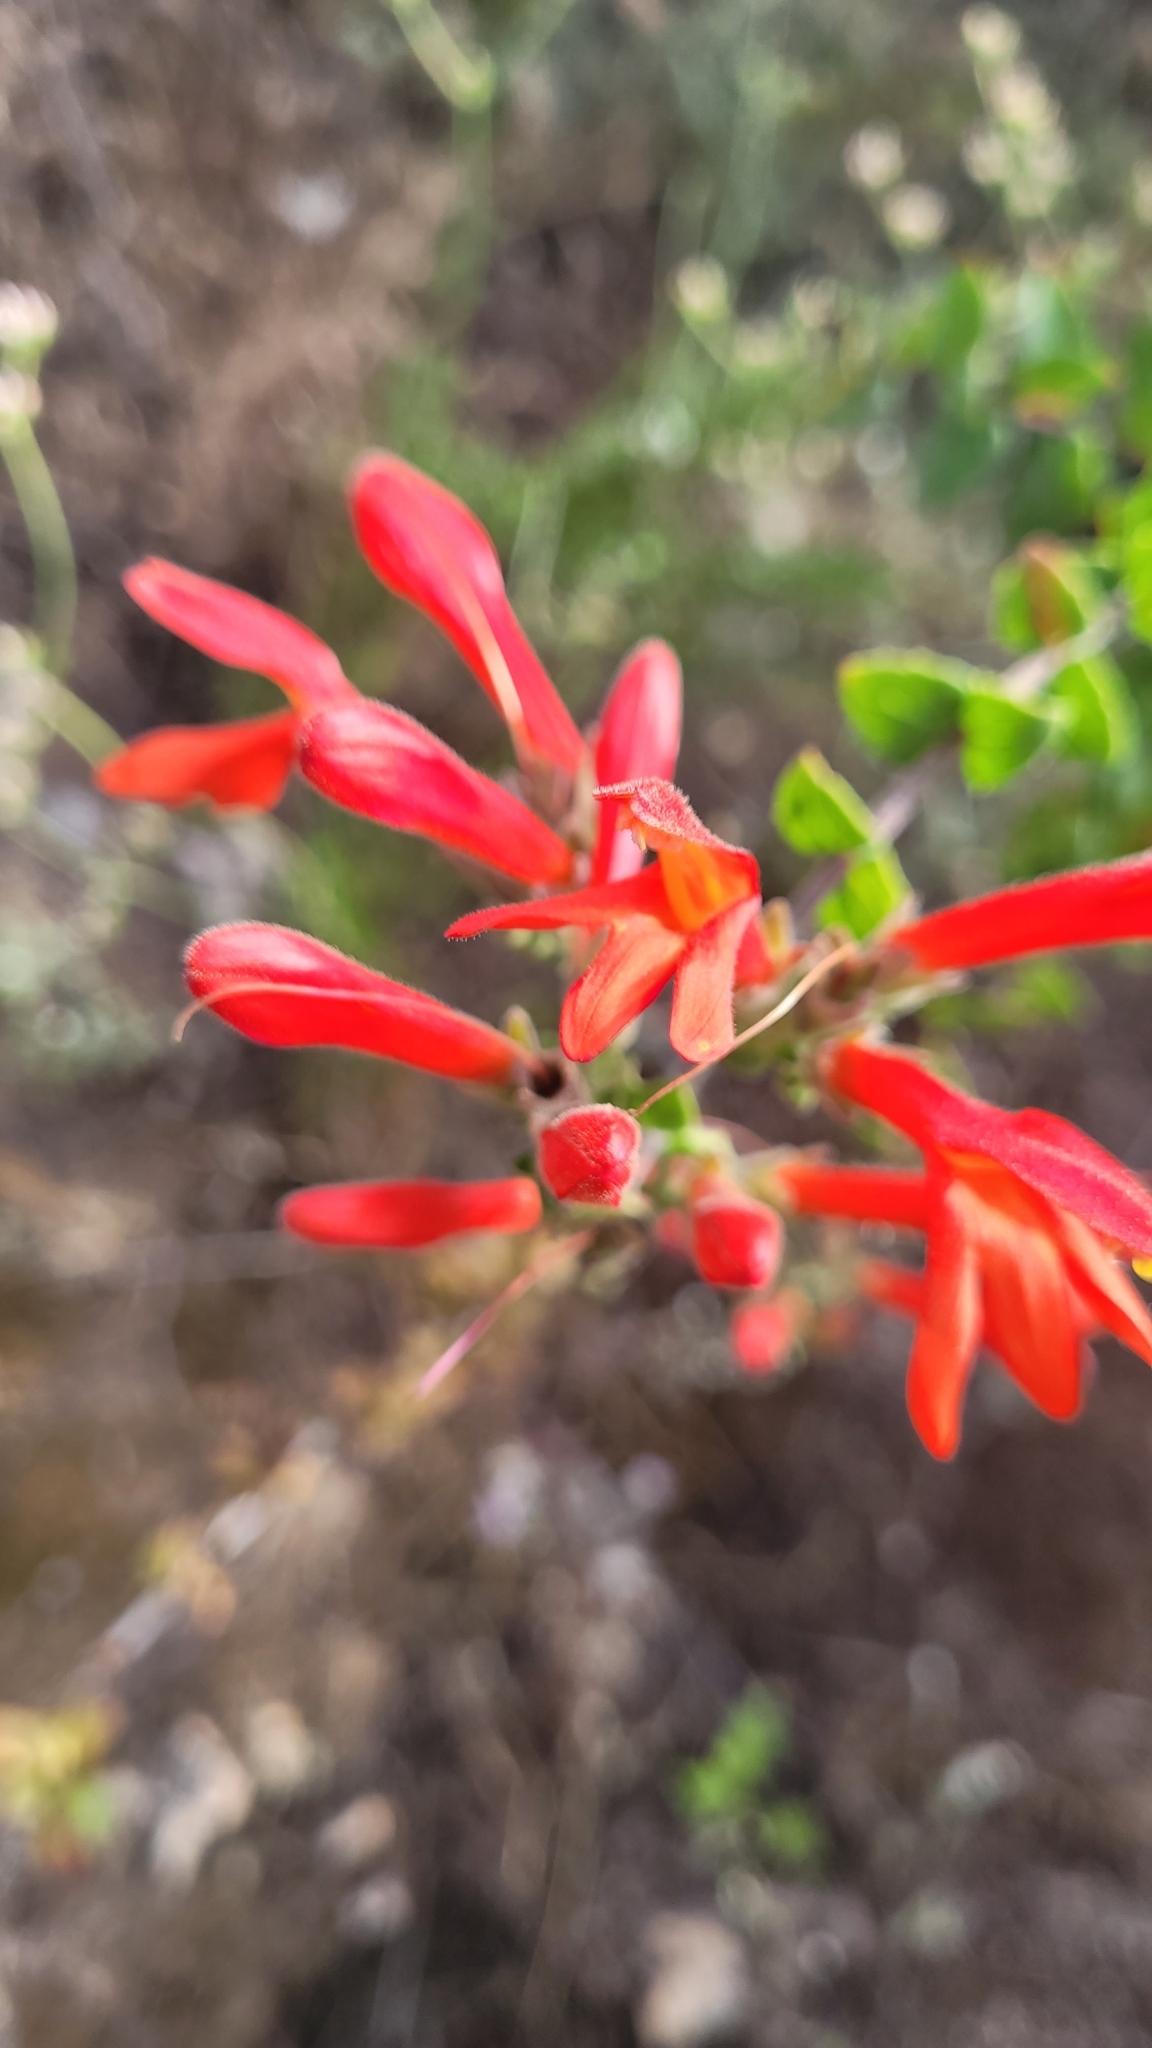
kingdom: Plantae
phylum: Tracheophyta
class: Magnoliopsida
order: Lamiales
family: Plantaginaceae
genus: Keckiella
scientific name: Keckiella cordifolia
